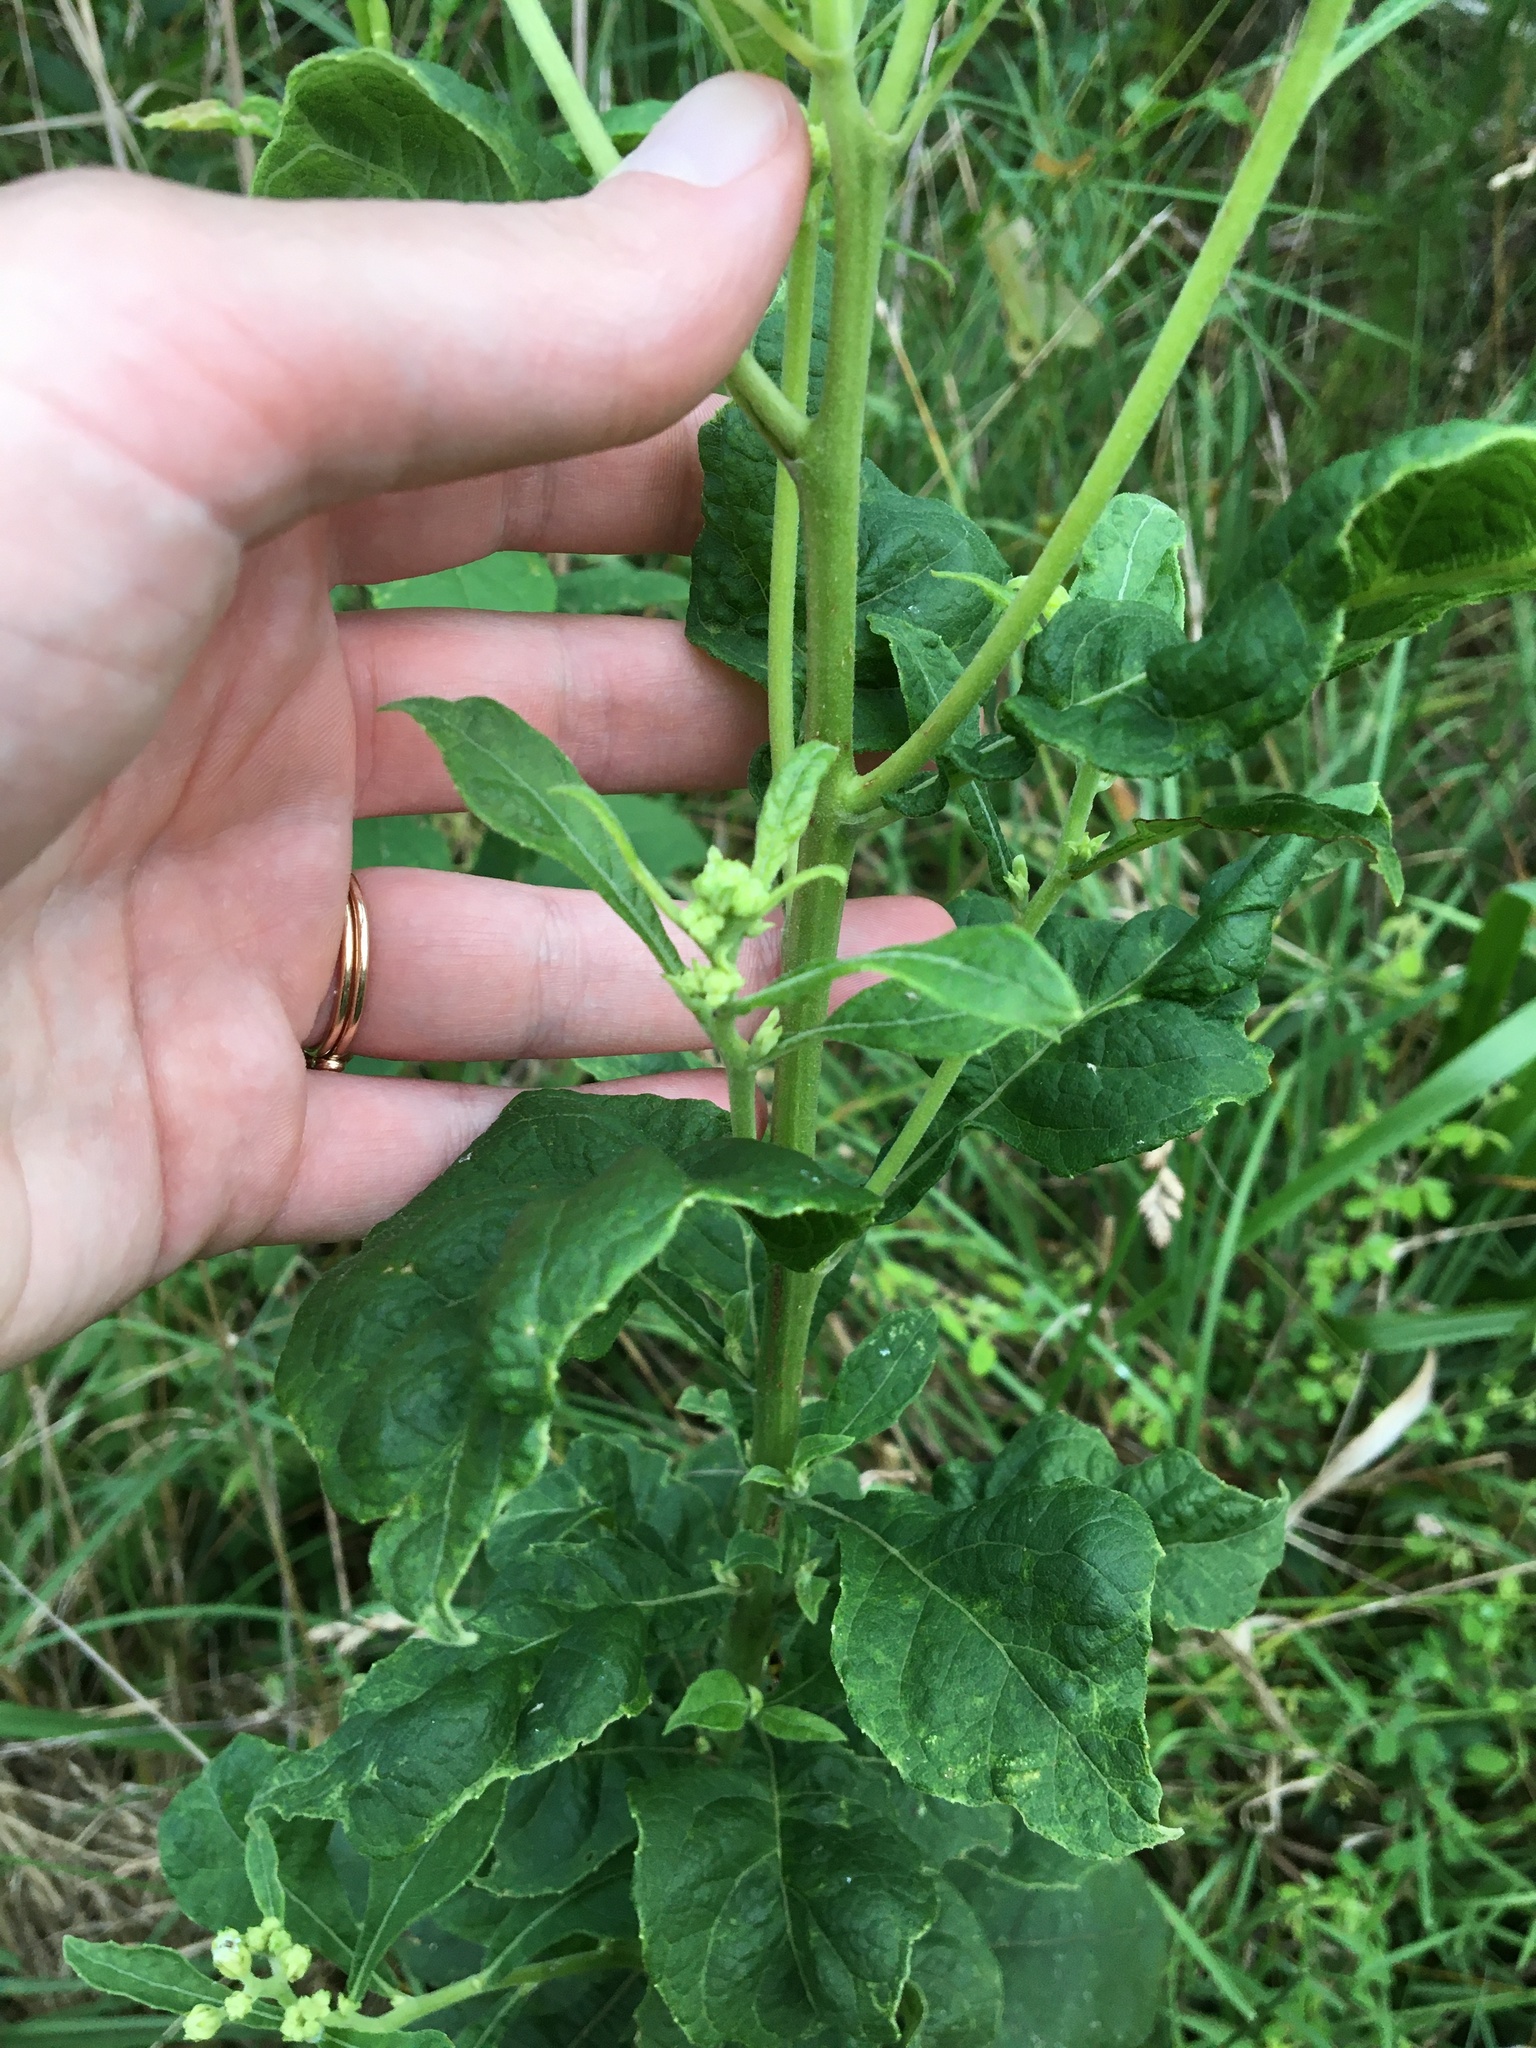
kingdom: Plantae
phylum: Tracheophyta
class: Magnoliopsida
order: Asterales
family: Asteraceae
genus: Verbesina
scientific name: Verbesina virginica
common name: Frostweed
